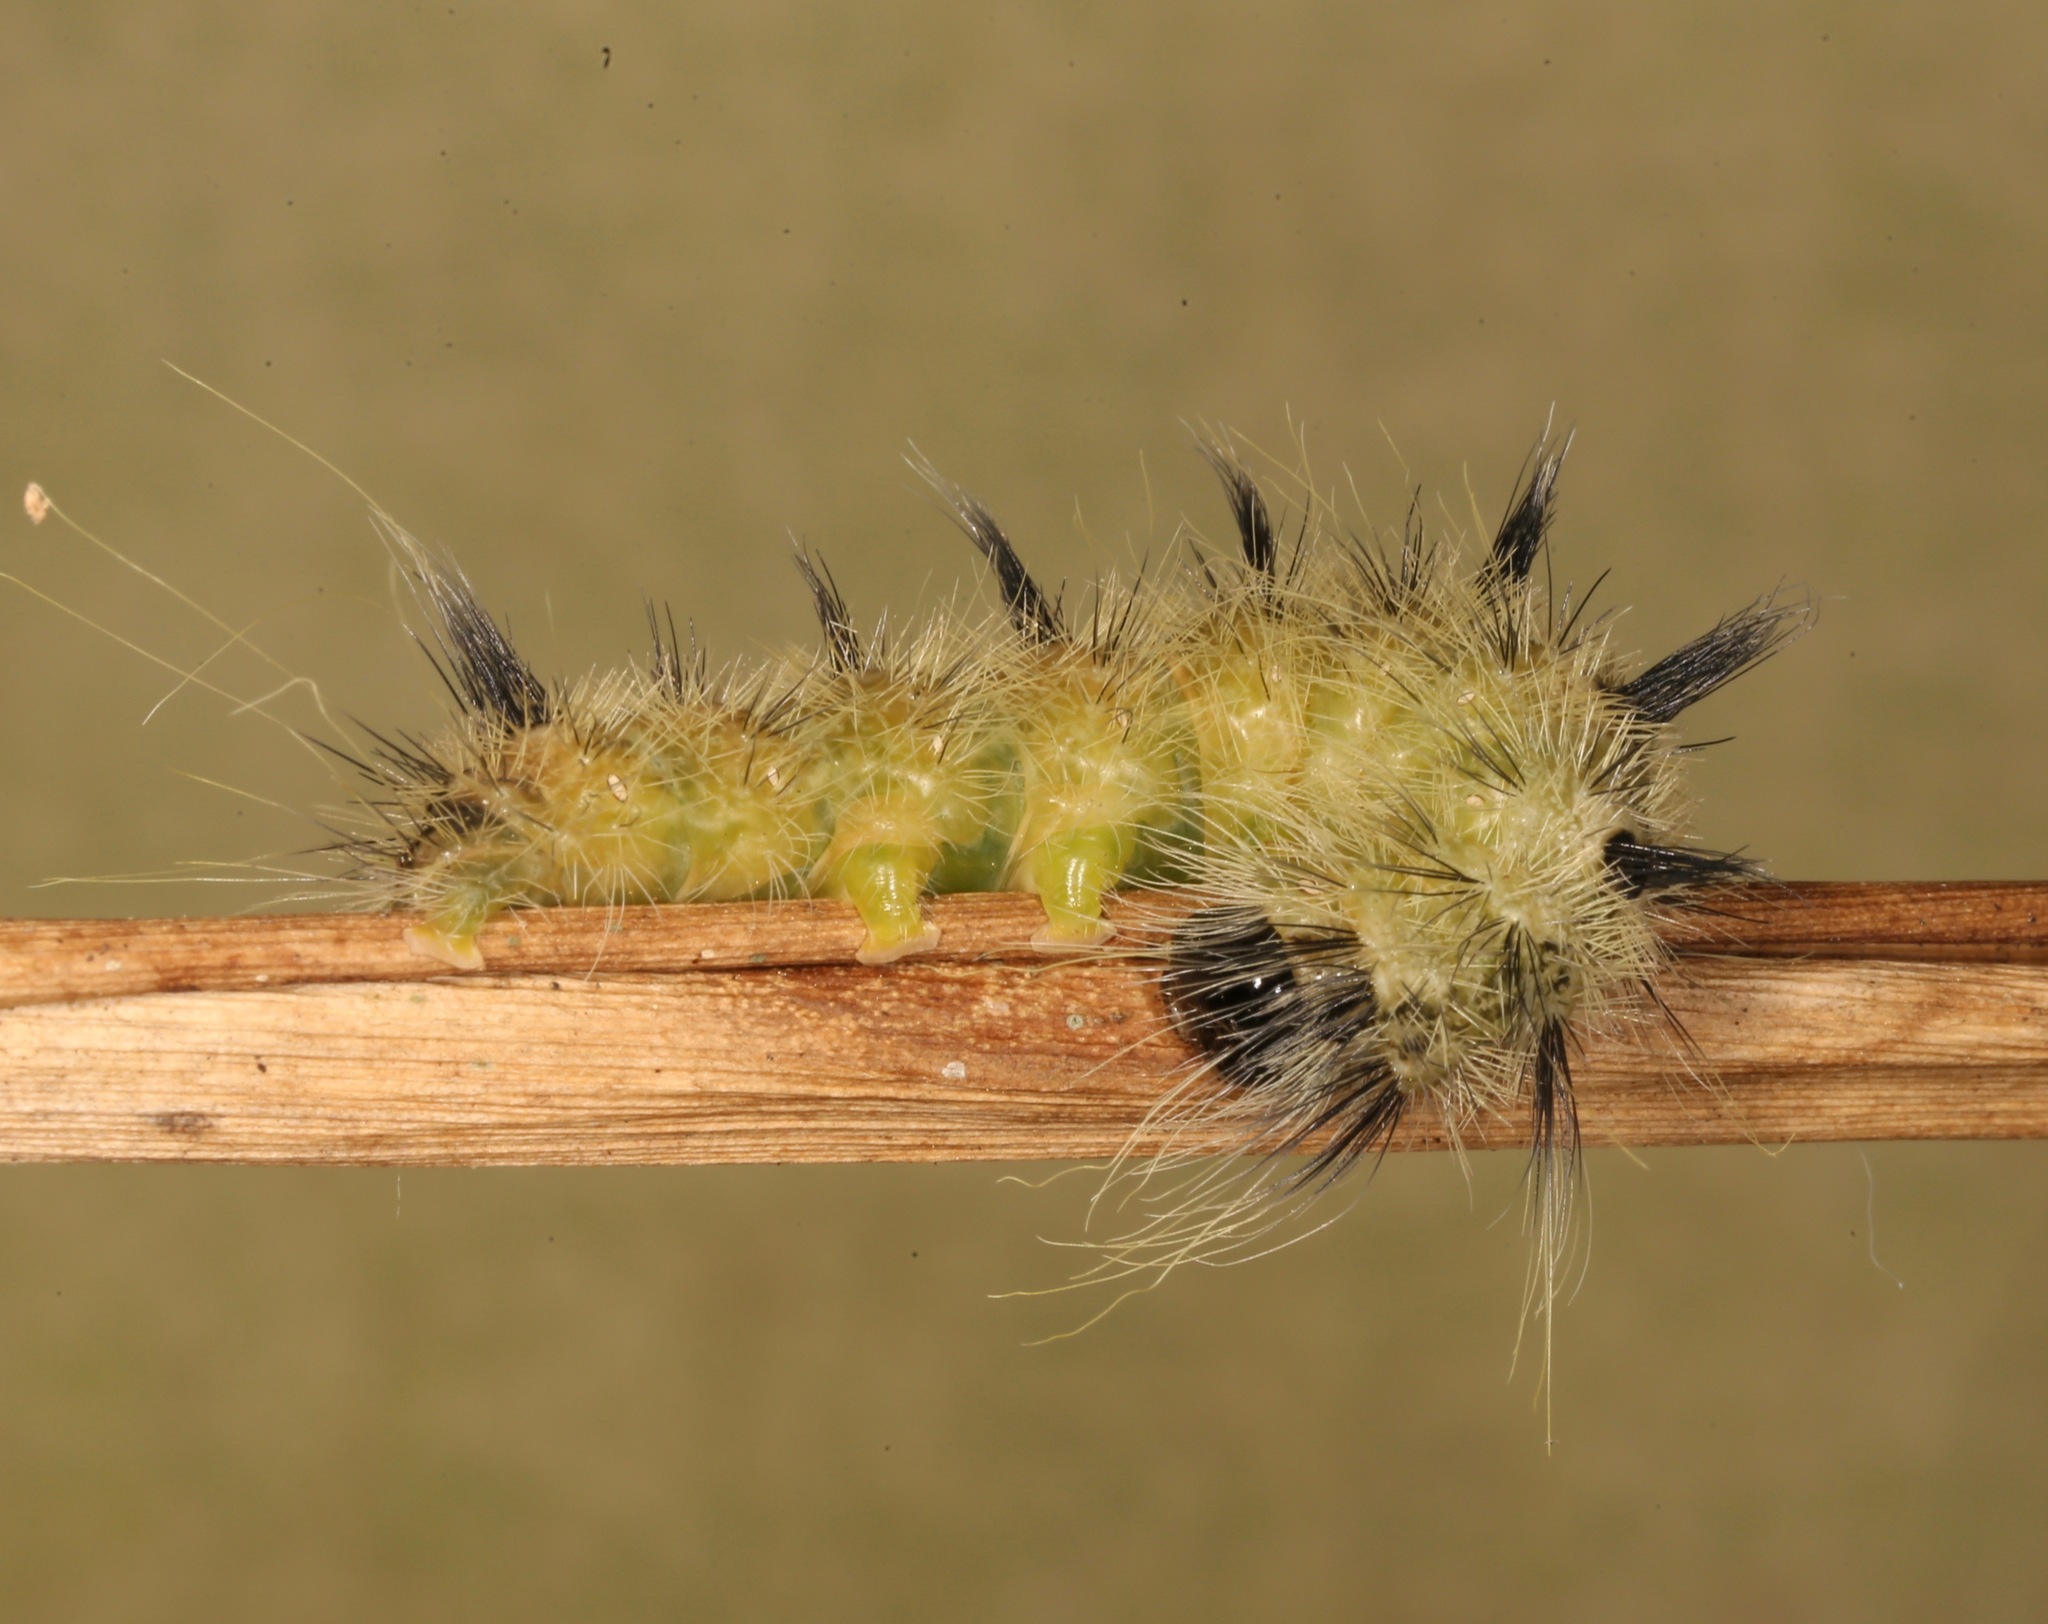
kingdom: Animalia
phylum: Arthropoda
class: Insecta
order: Lepidoptera
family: Noctuidae
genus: Acronicta
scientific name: Acronicta rubricoma
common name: Hackberry dagger
